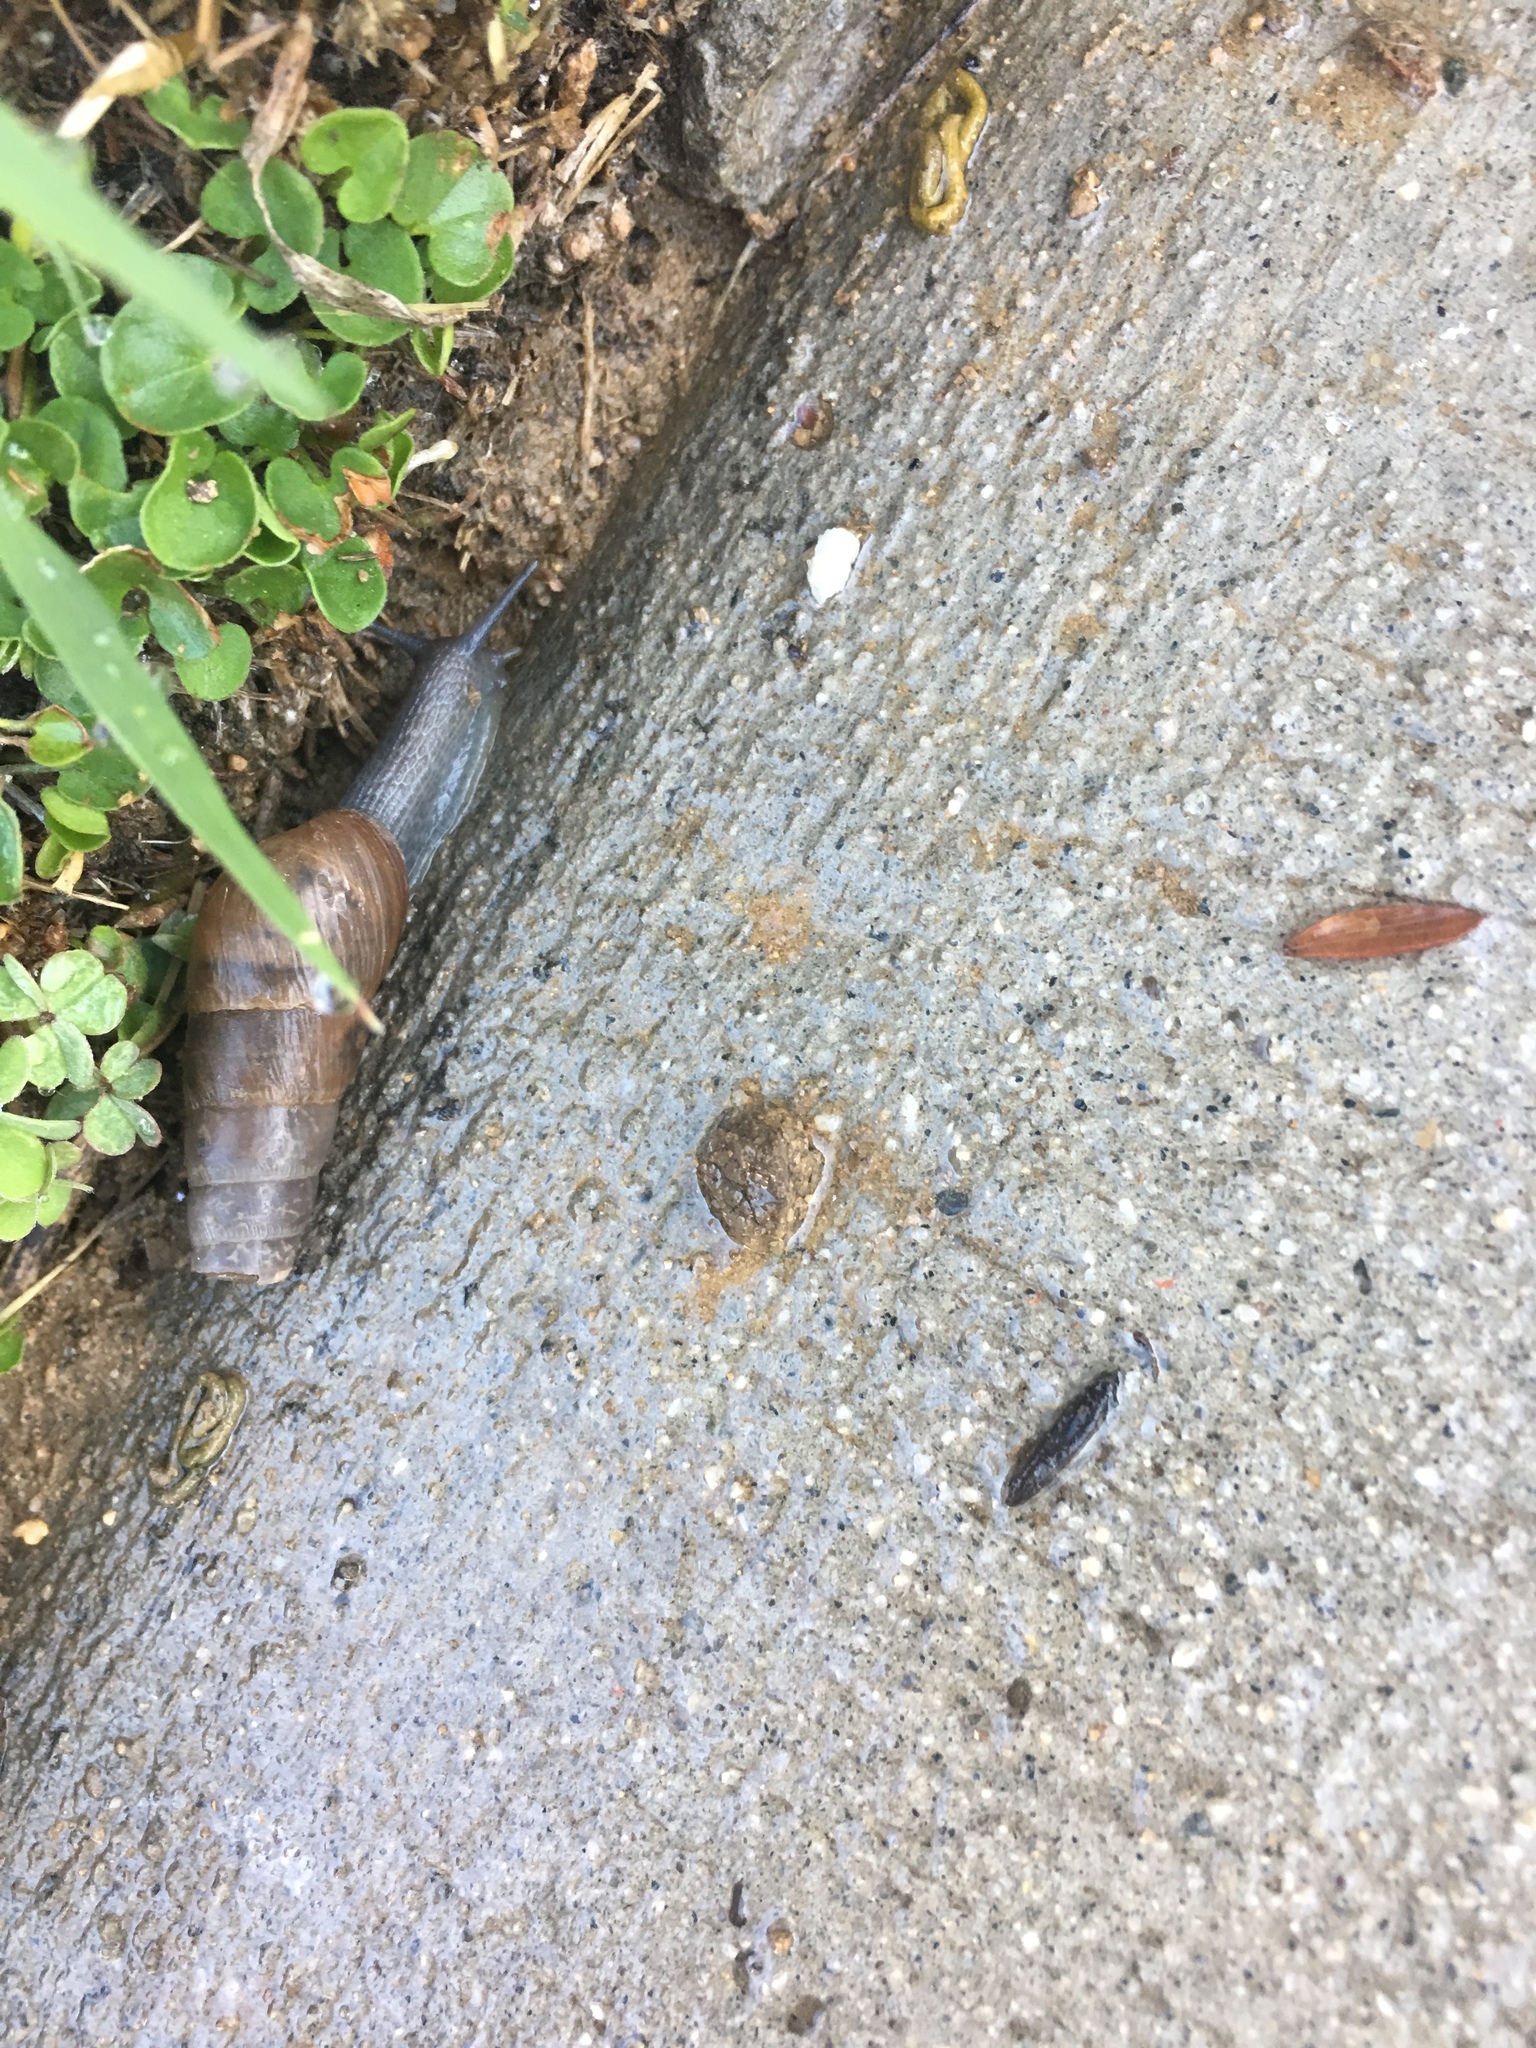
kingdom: Animalia
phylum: Mollusca
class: Gastropoda
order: Stylommatophora
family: Achatinidae
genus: Rumina
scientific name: Rumina decollata
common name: Decollate snail
